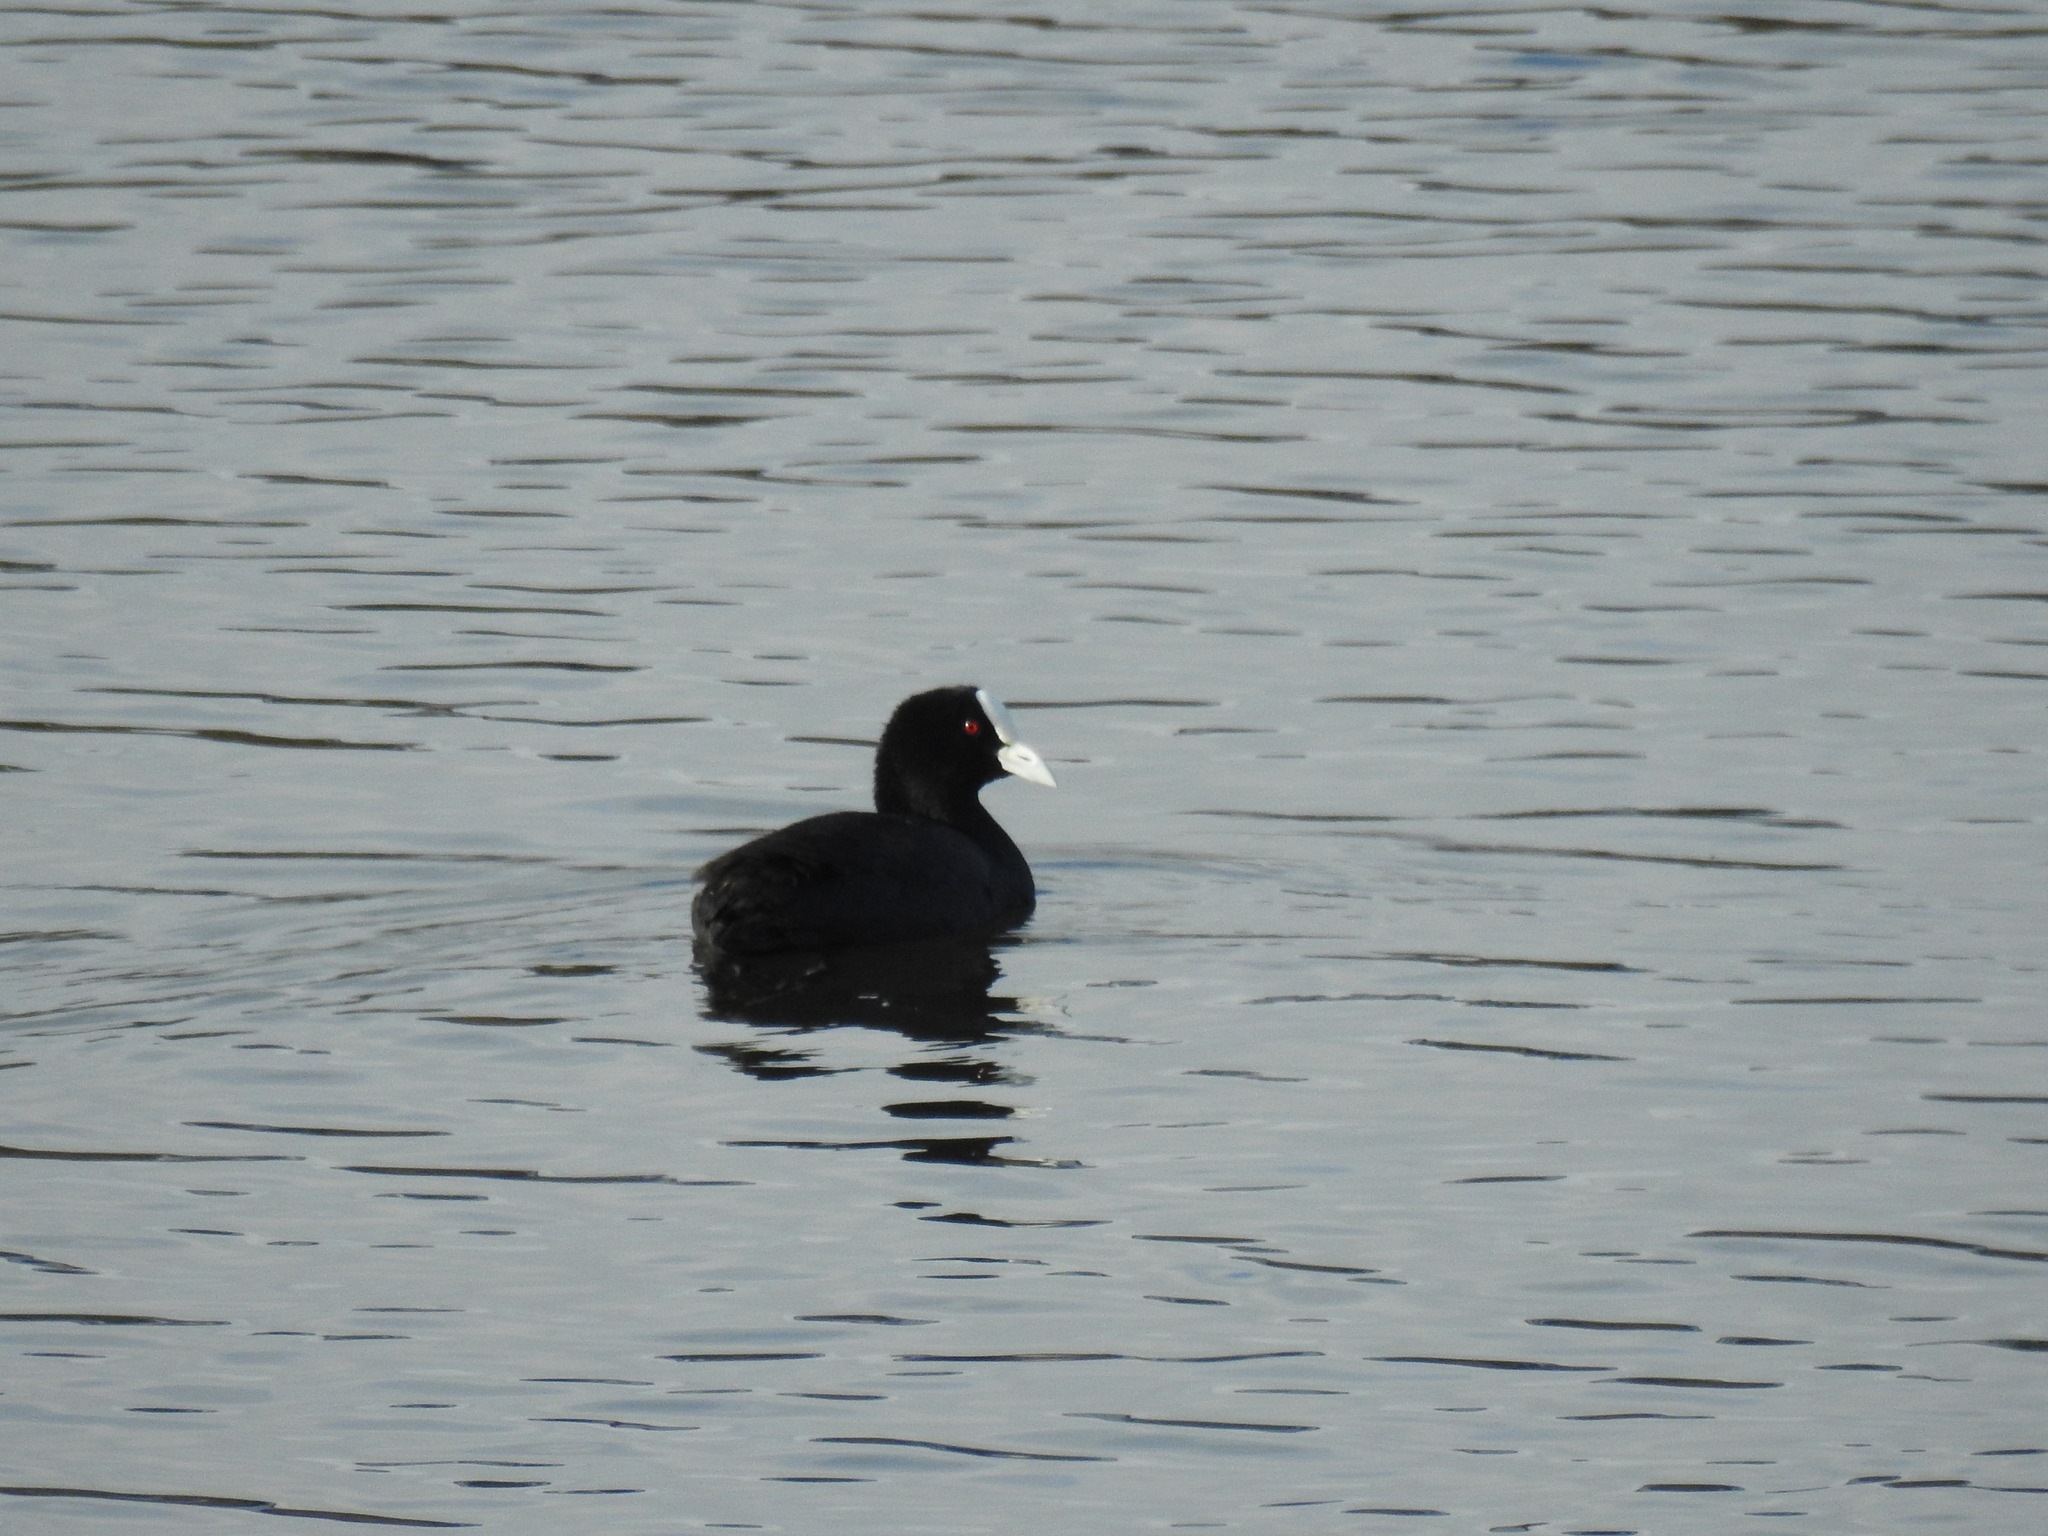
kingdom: Animalia
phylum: Chordata
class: Aves
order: Gruiformes
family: Rallidae
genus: Fulica
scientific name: Fulica atra
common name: Eurasian coot
